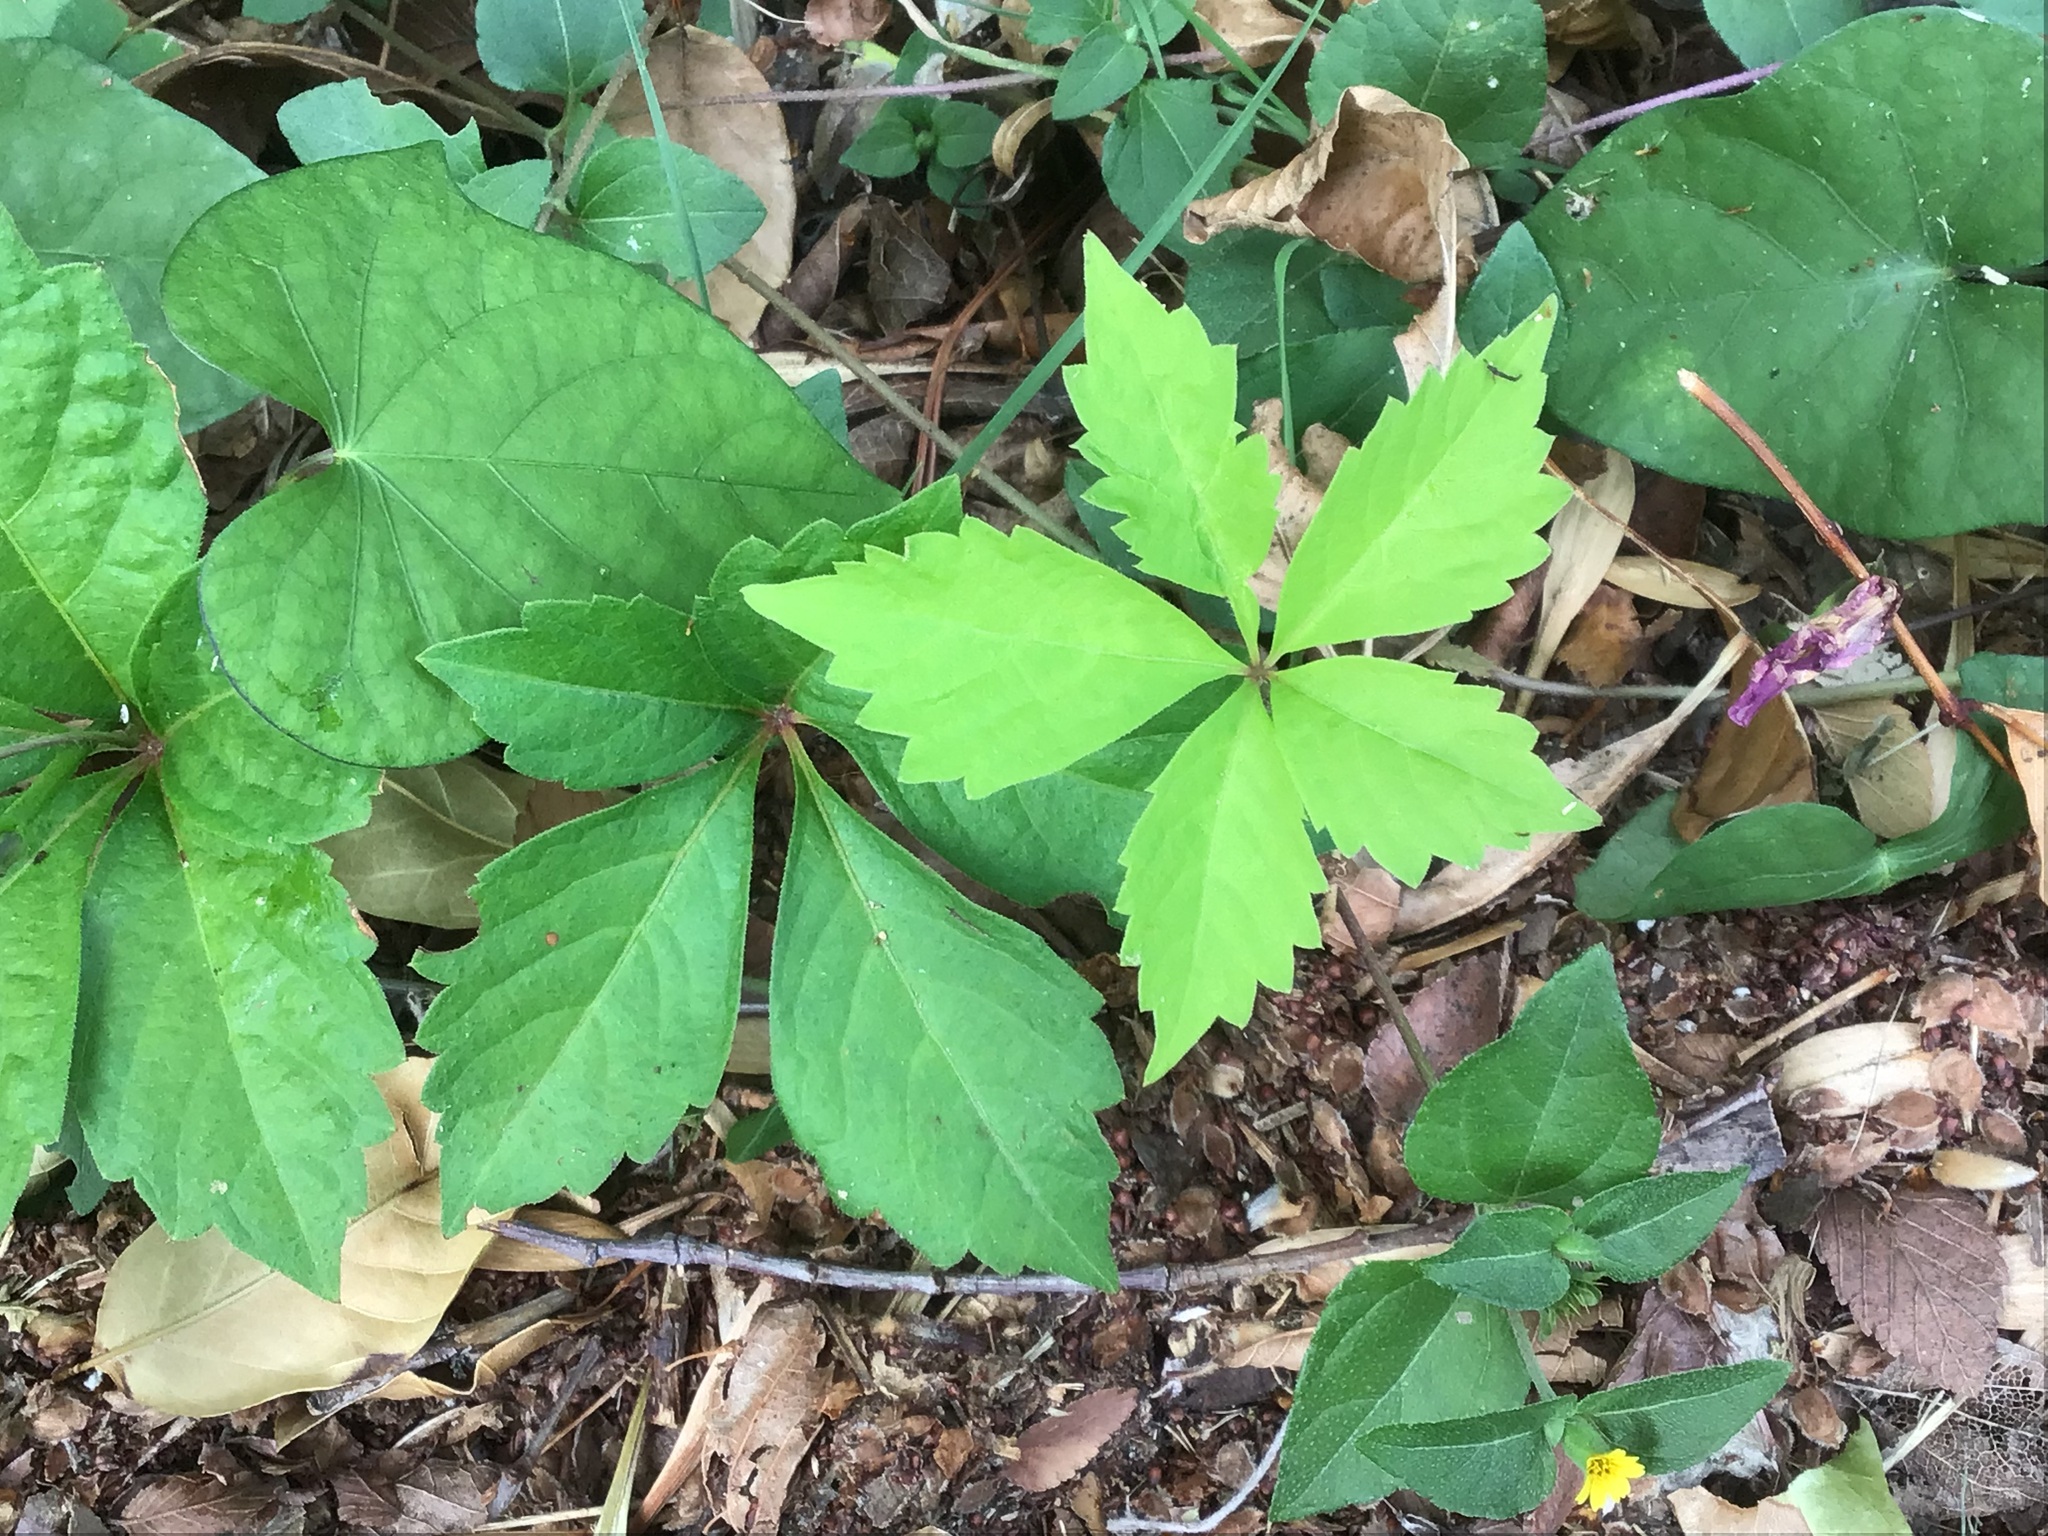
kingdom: Plantae
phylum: Tracheophyta
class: Magnoliopsida
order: Vitales
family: Vitaceae
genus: Parthenocissus
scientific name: Parthenocissus quinquefolia
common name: Virginia-creeper
